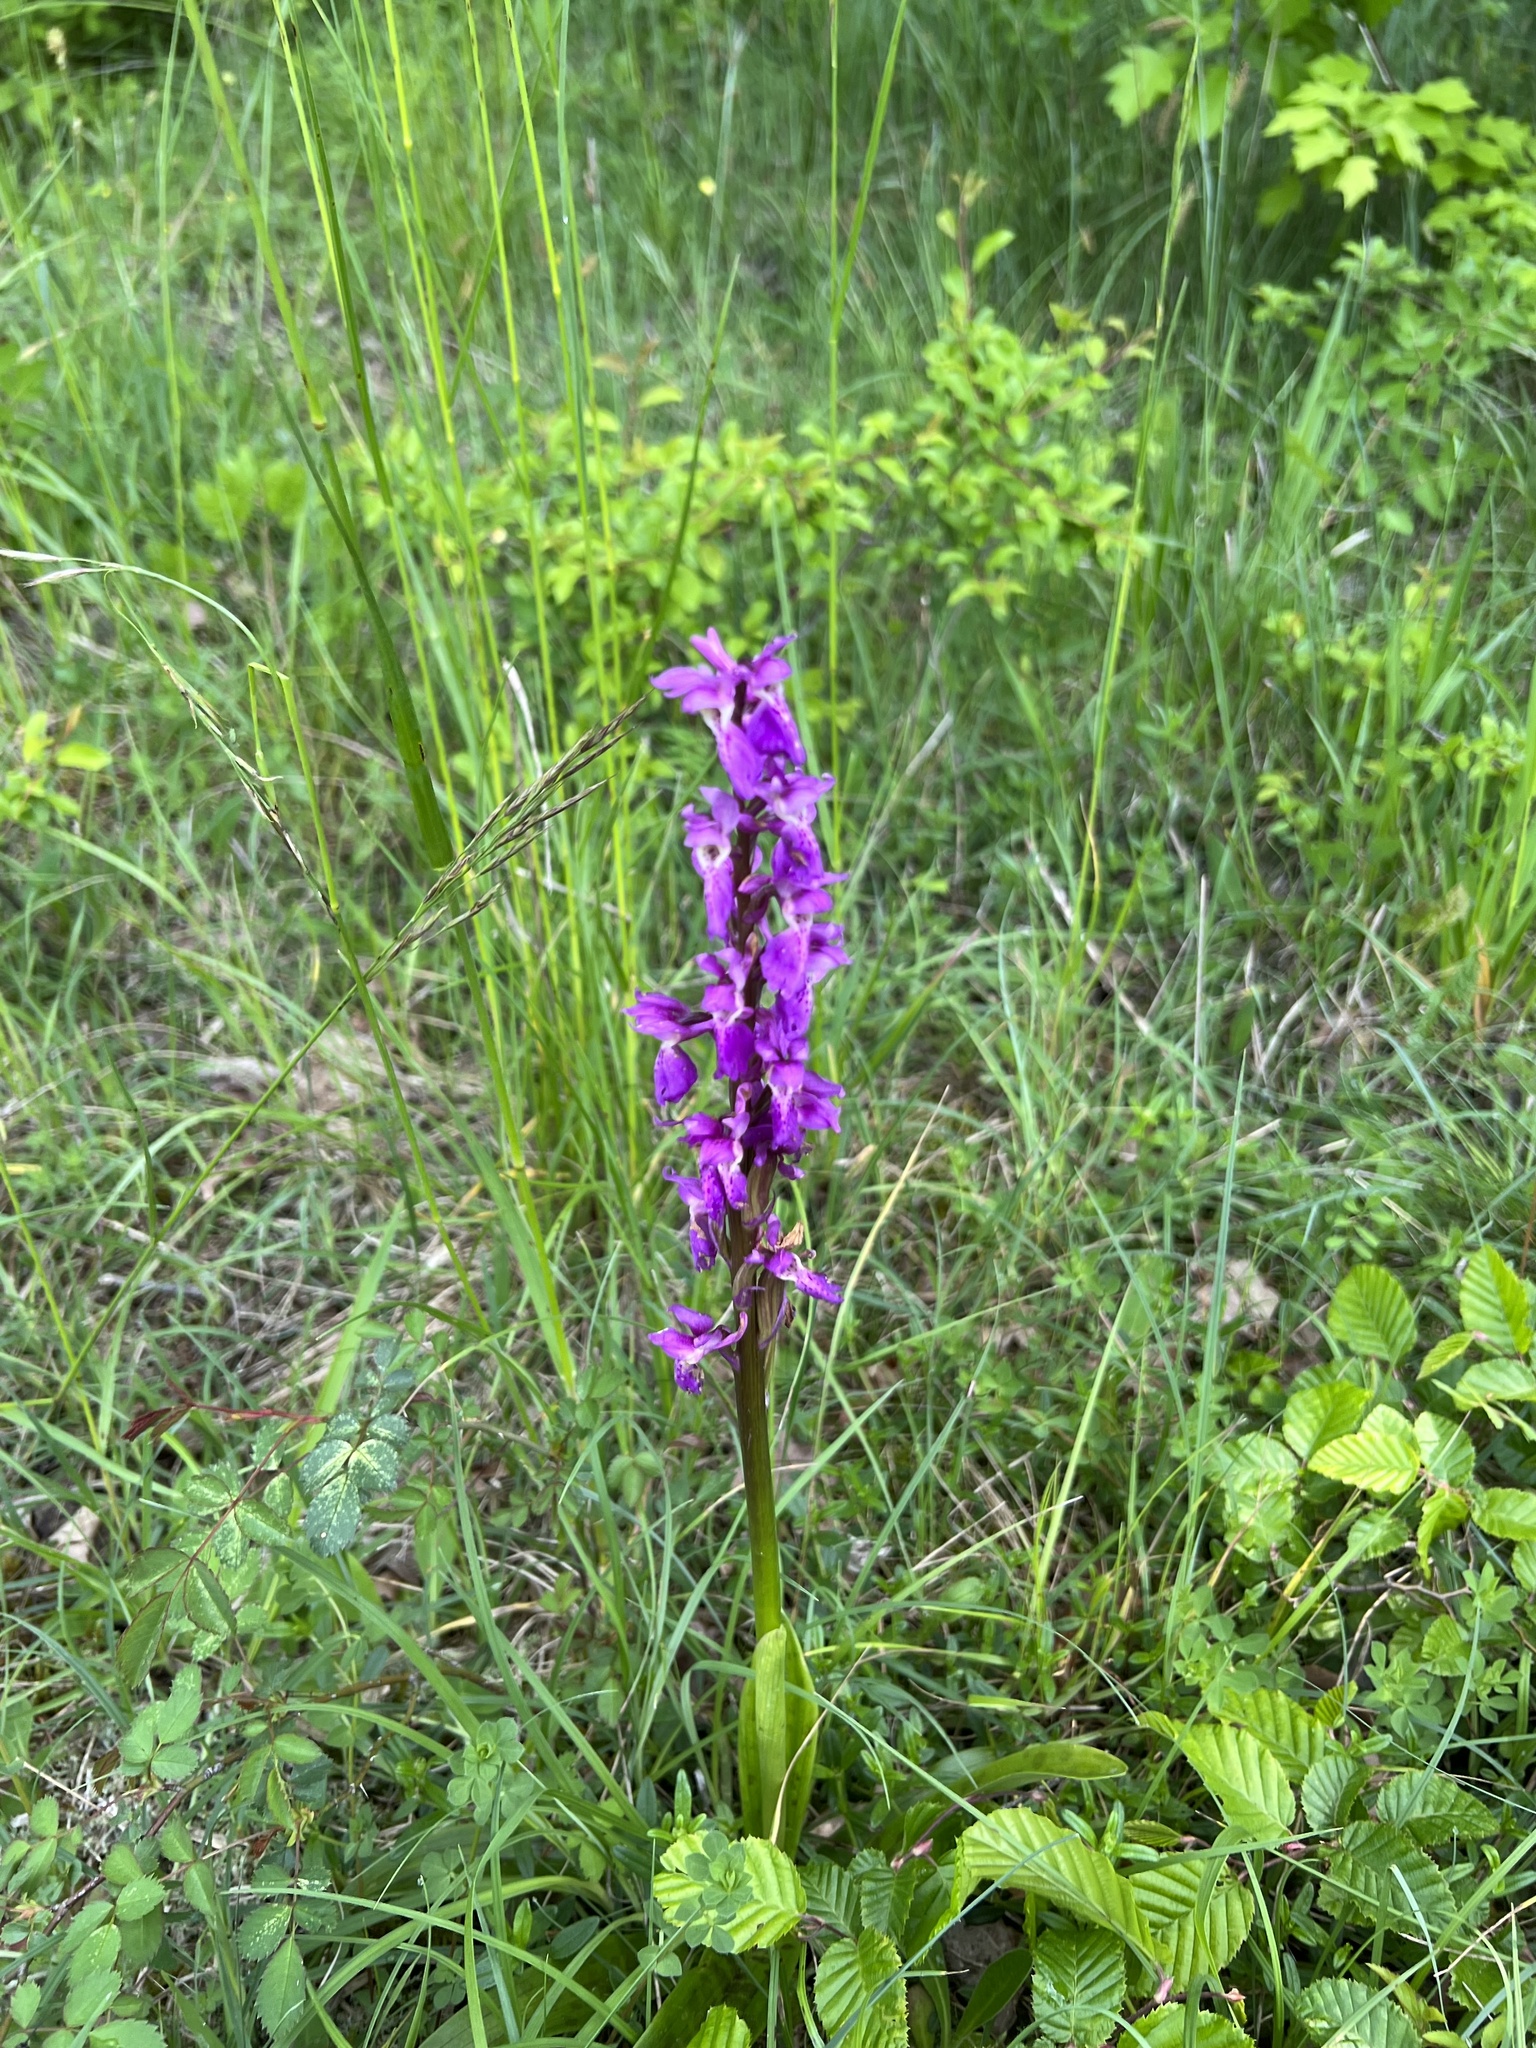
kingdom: Plantae
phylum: Tracheophyta
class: Liliopsida
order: Asparagales
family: Orchidaceae
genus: Orchis
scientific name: Orchis mascula
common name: Early-purple orchid
